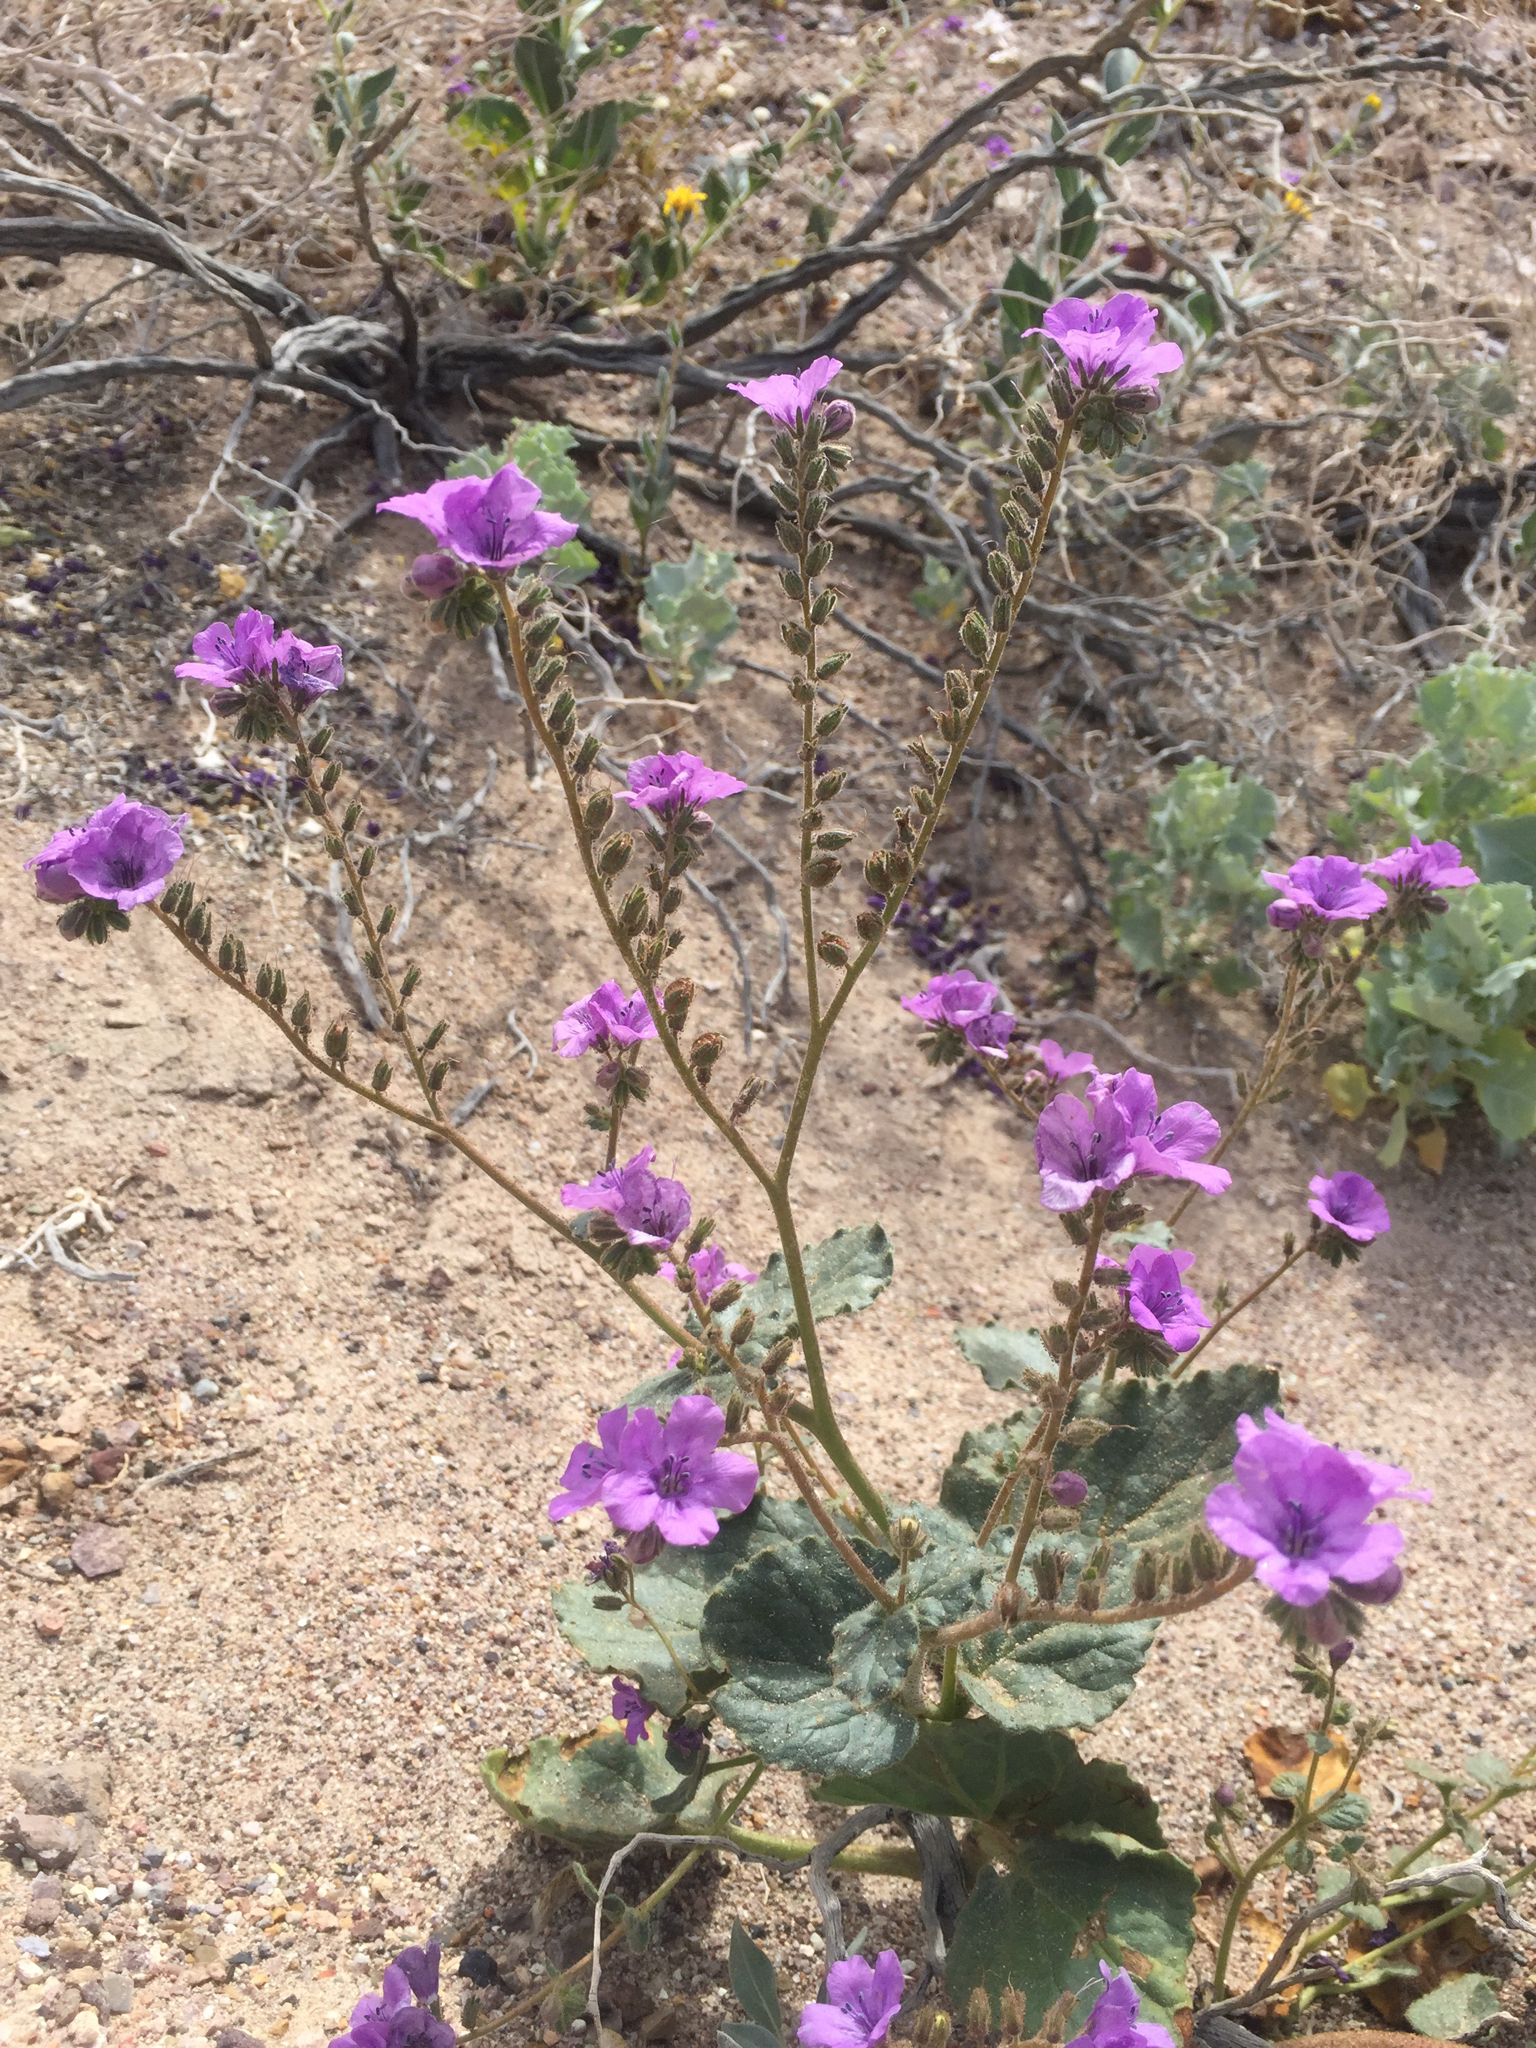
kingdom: Plantae
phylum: Tracheophyta
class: Magnoliopsida
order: Boraginales
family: Hydrophyllaceae
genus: Phacelia
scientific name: Phacelia calthifolia
